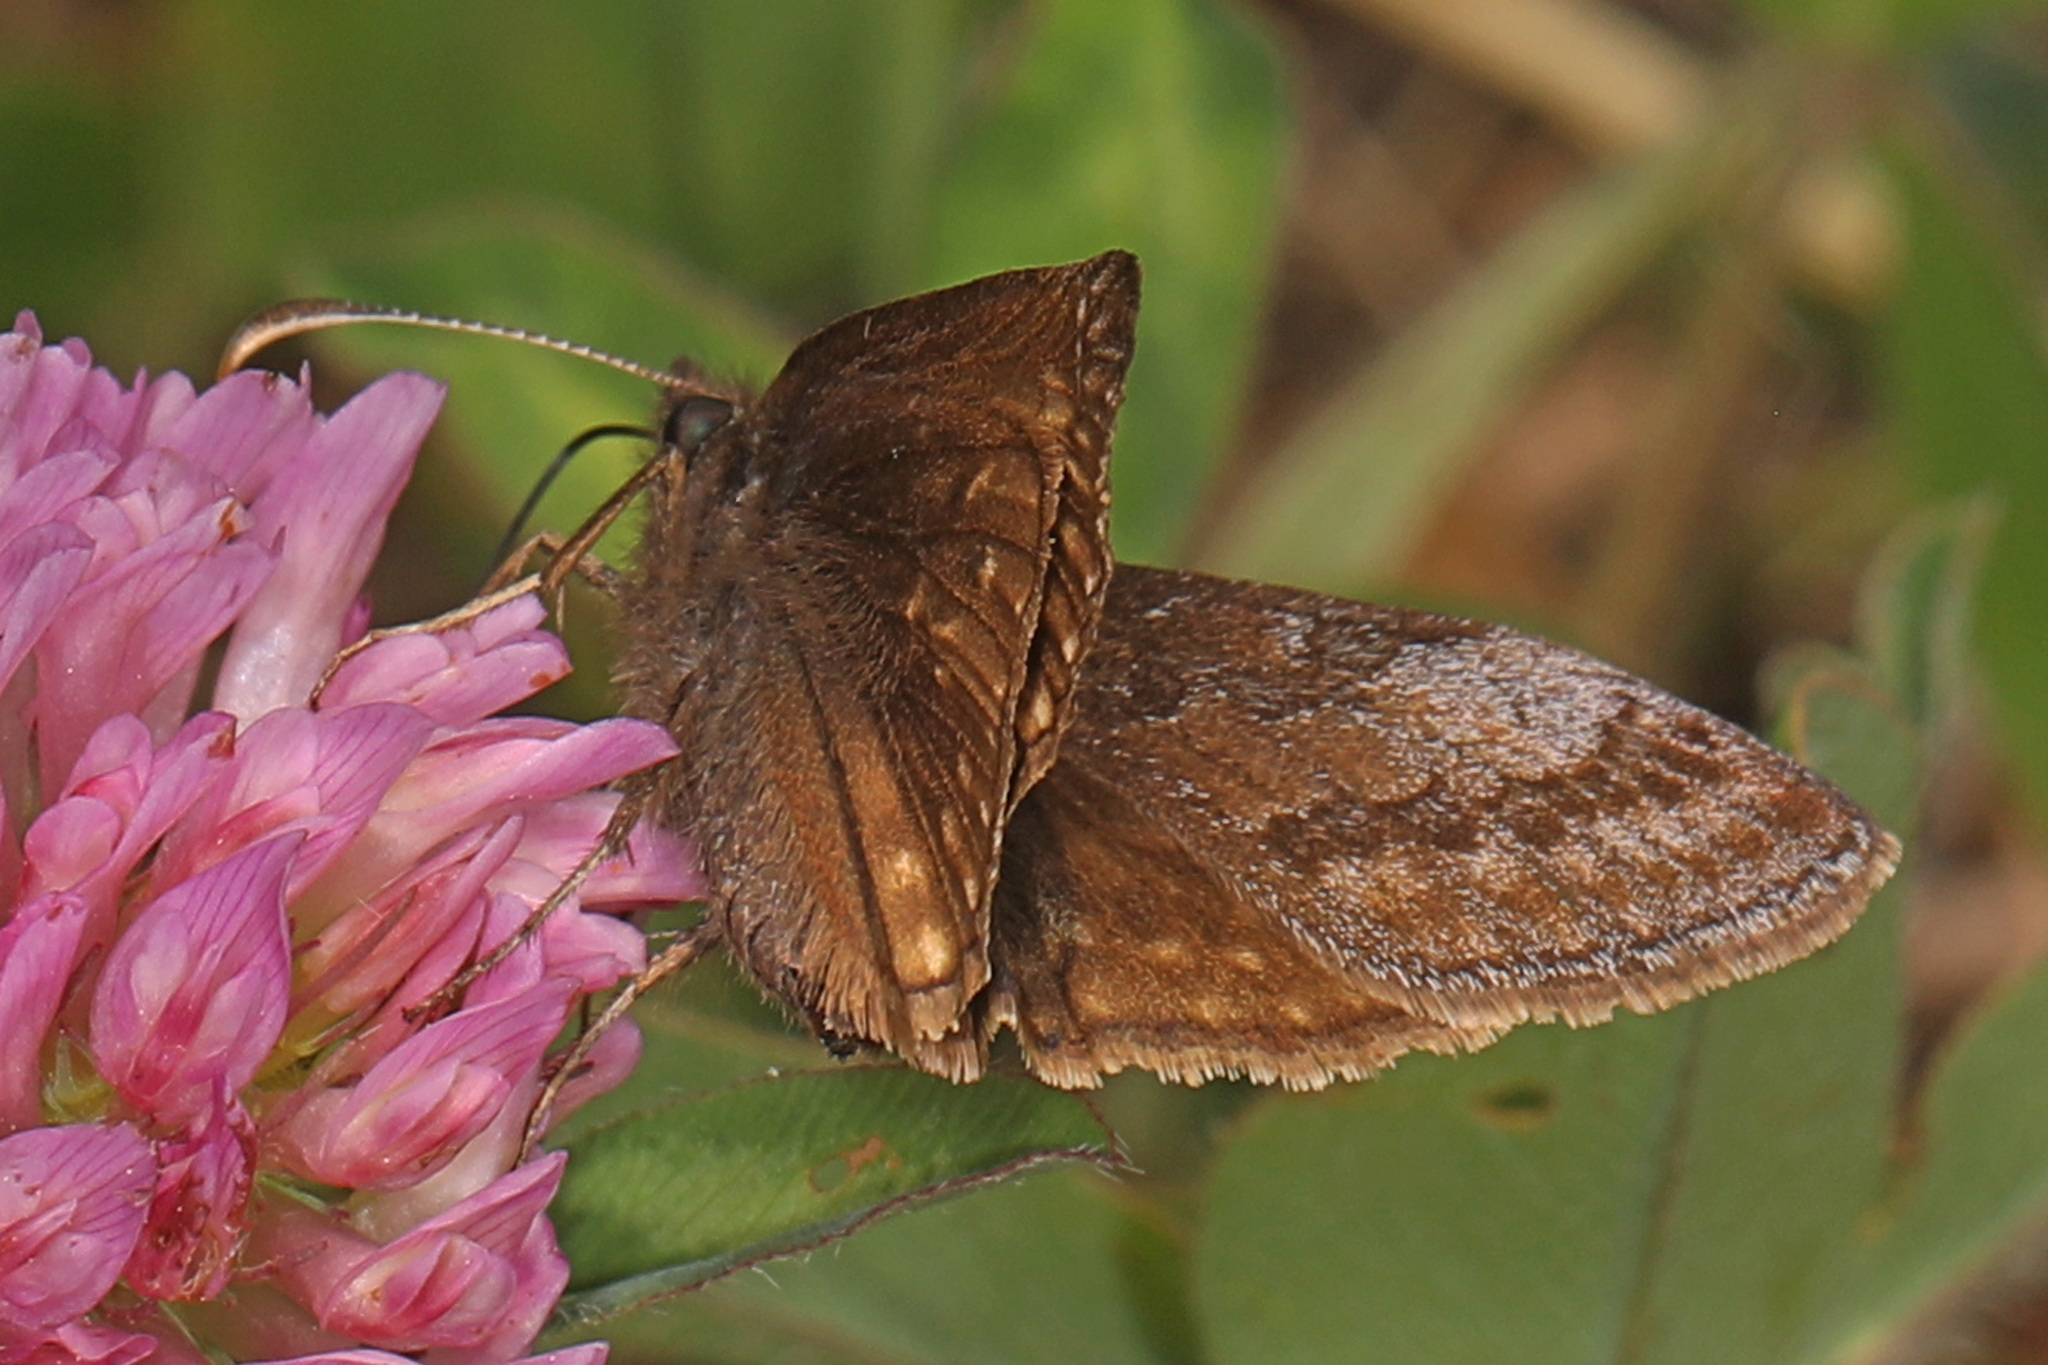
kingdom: Animalia
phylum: Arthropoda
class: Insecta
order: Lepidoptera
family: Hesperiidae
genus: Erynnis
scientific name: Erynnis icelus
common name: Dreamy duskywing
